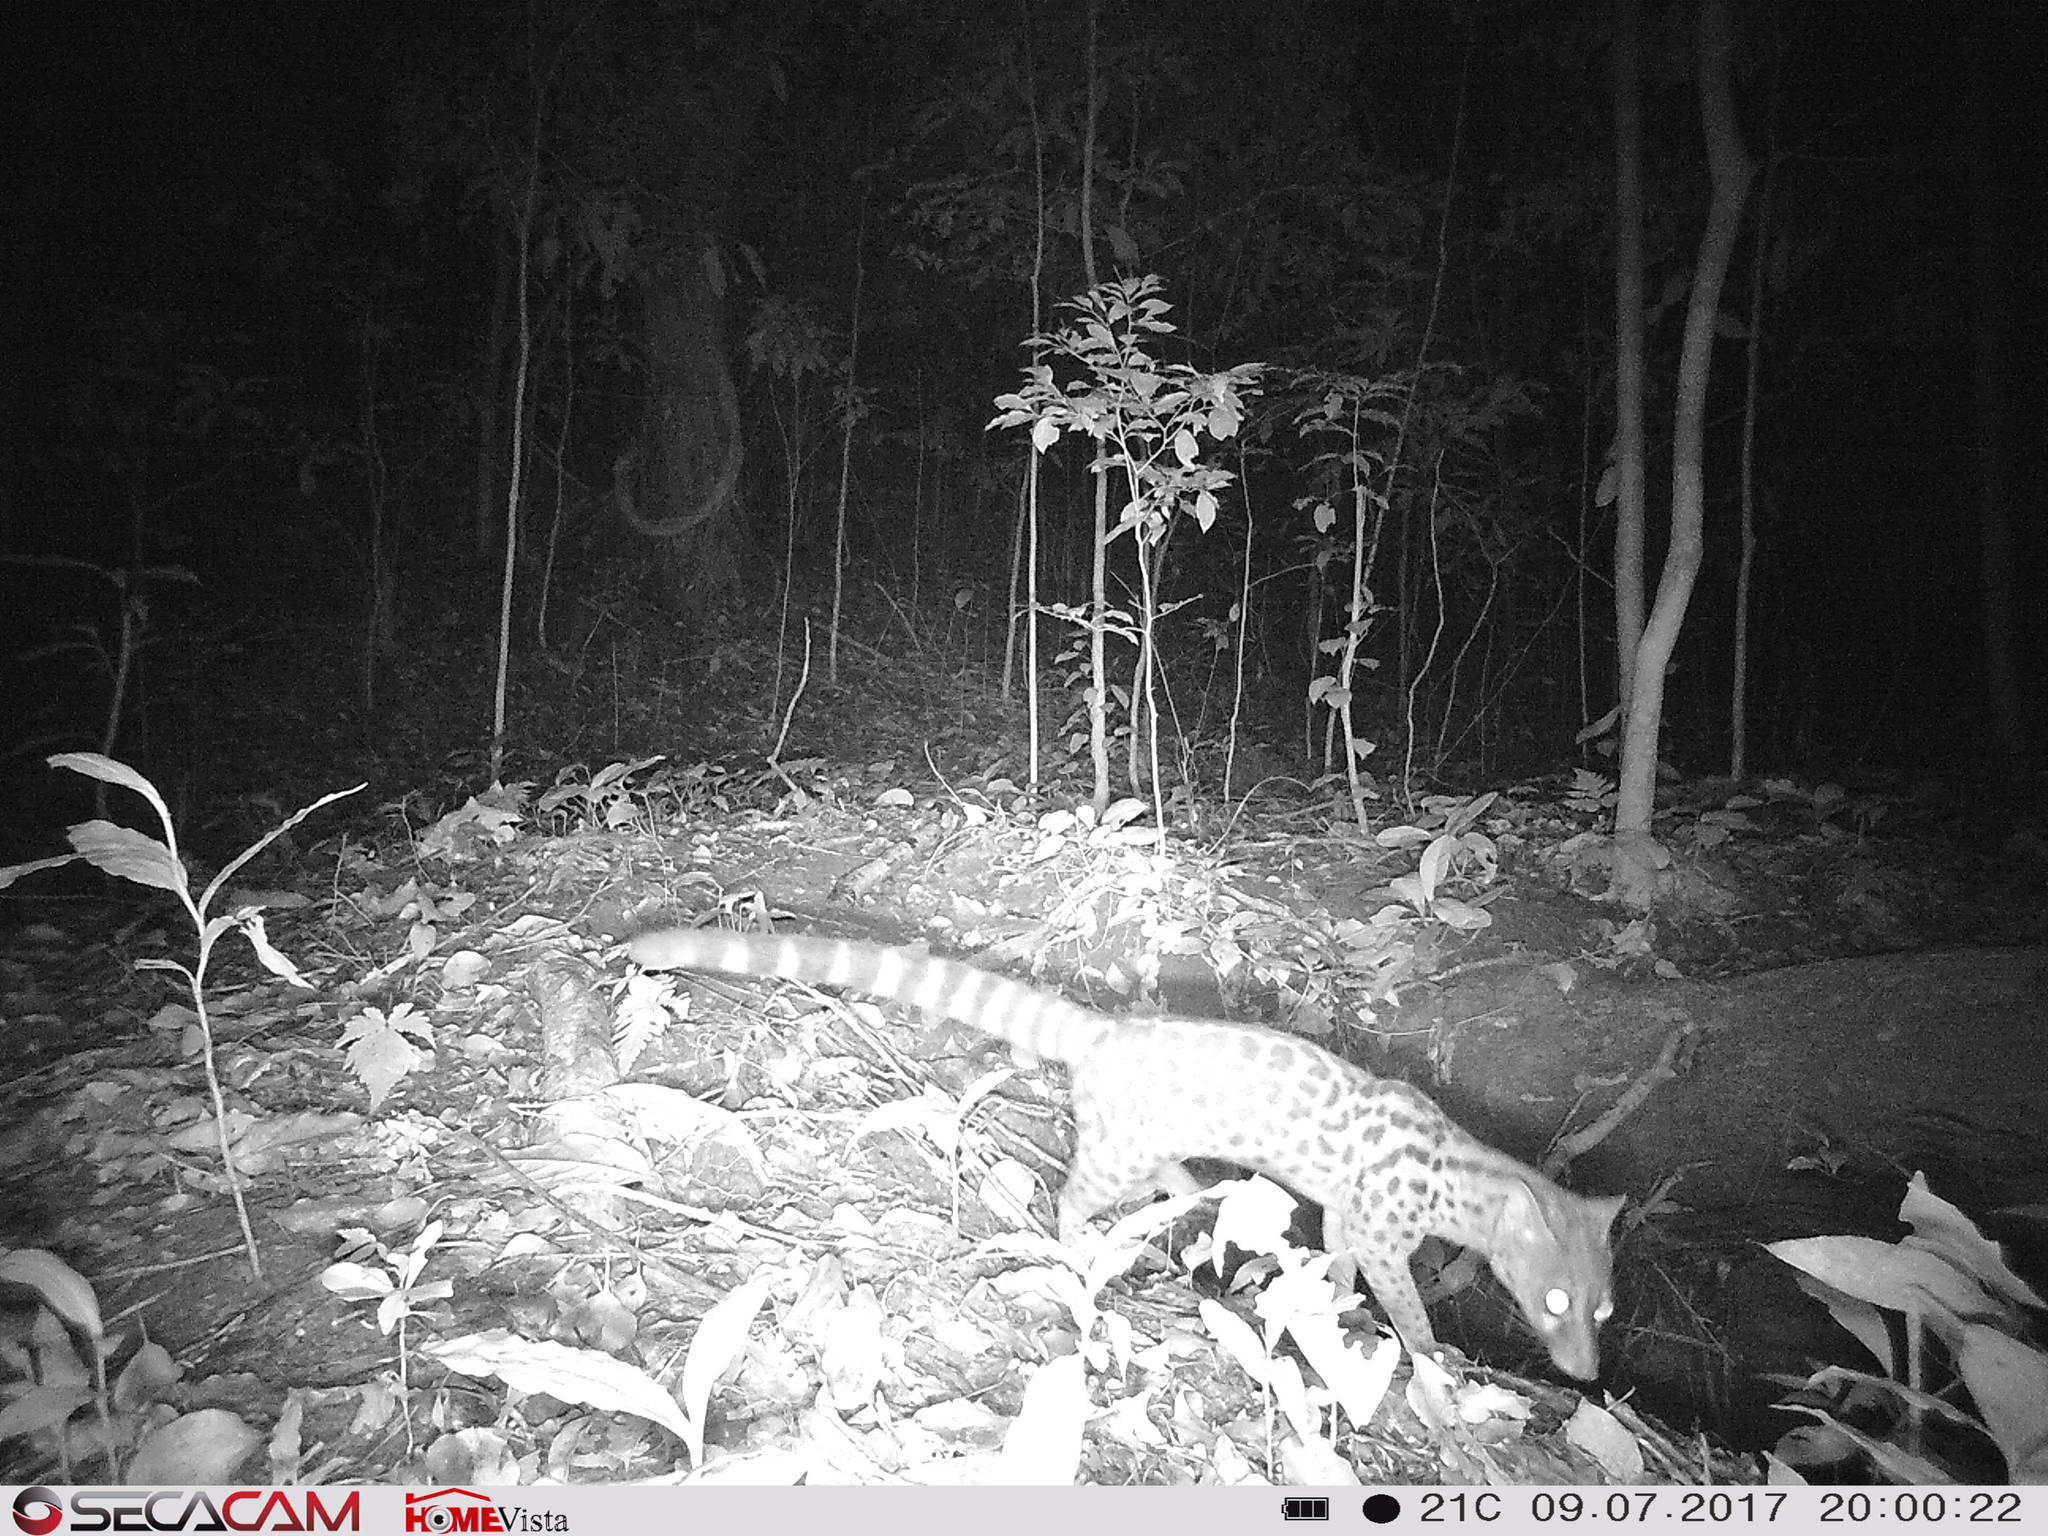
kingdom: Animalia
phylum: Chordata
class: Mammalia
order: Carnivora
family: Viverridae
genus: Genetta
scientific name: Genetta servalina
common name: Servaline genet
